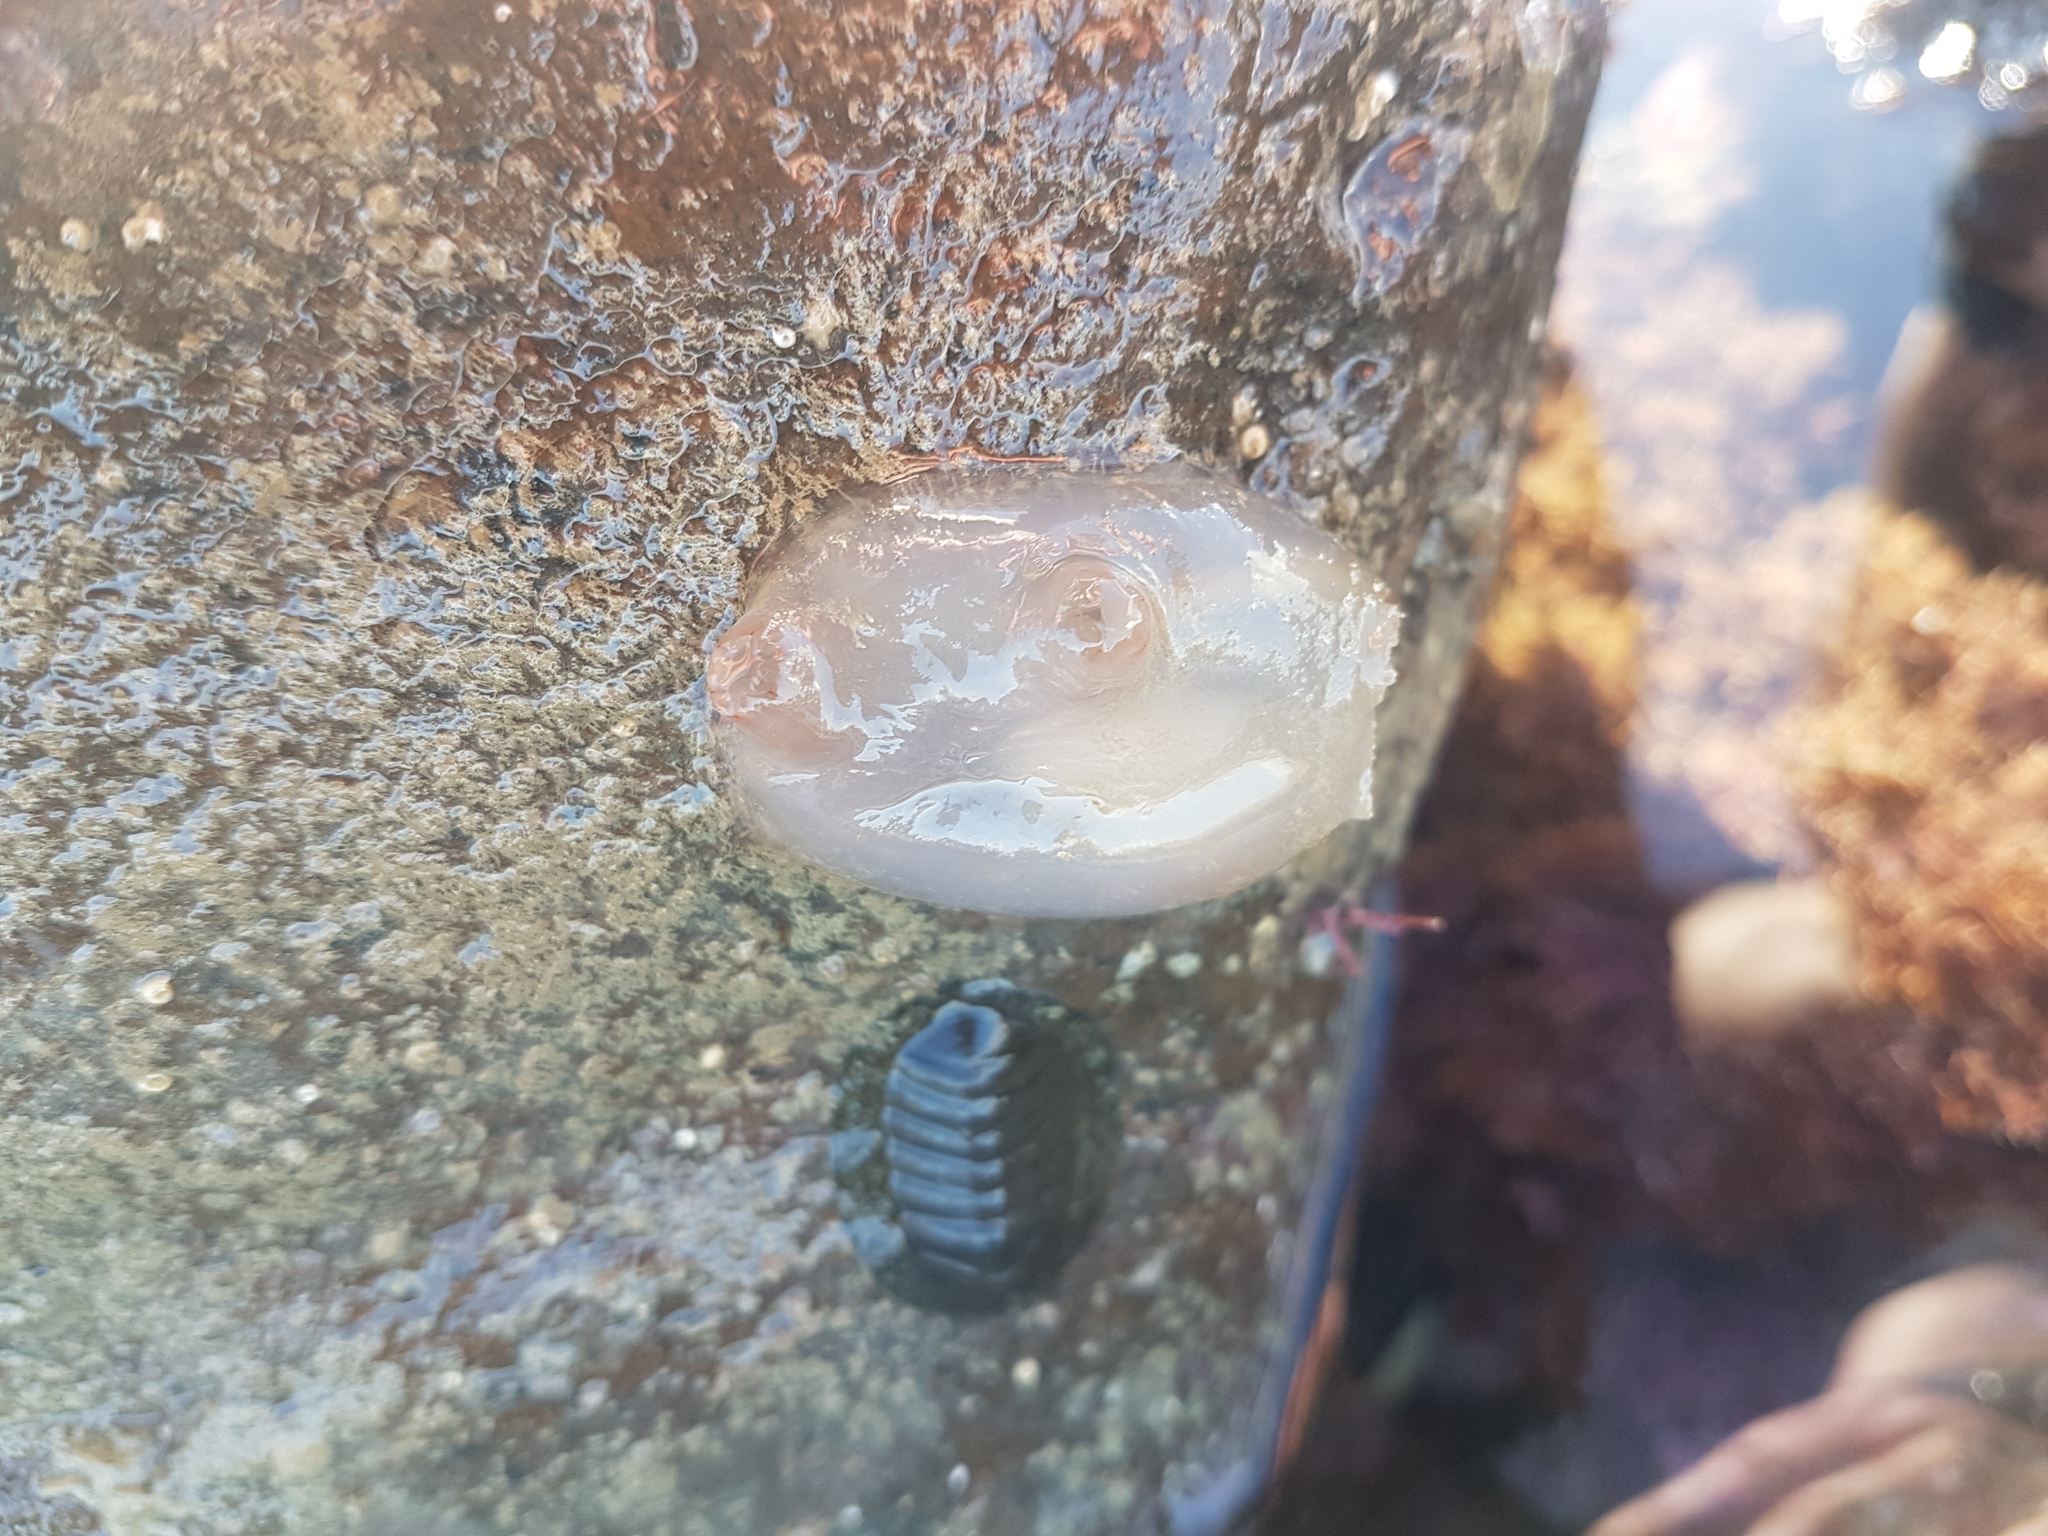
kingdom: Animalia
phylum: Chordata
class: Ascidiacea
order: Phlebobranchia
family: Corellidae
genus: Corella
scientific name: Corella eumyota
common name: Orange-tipped sea squirt
